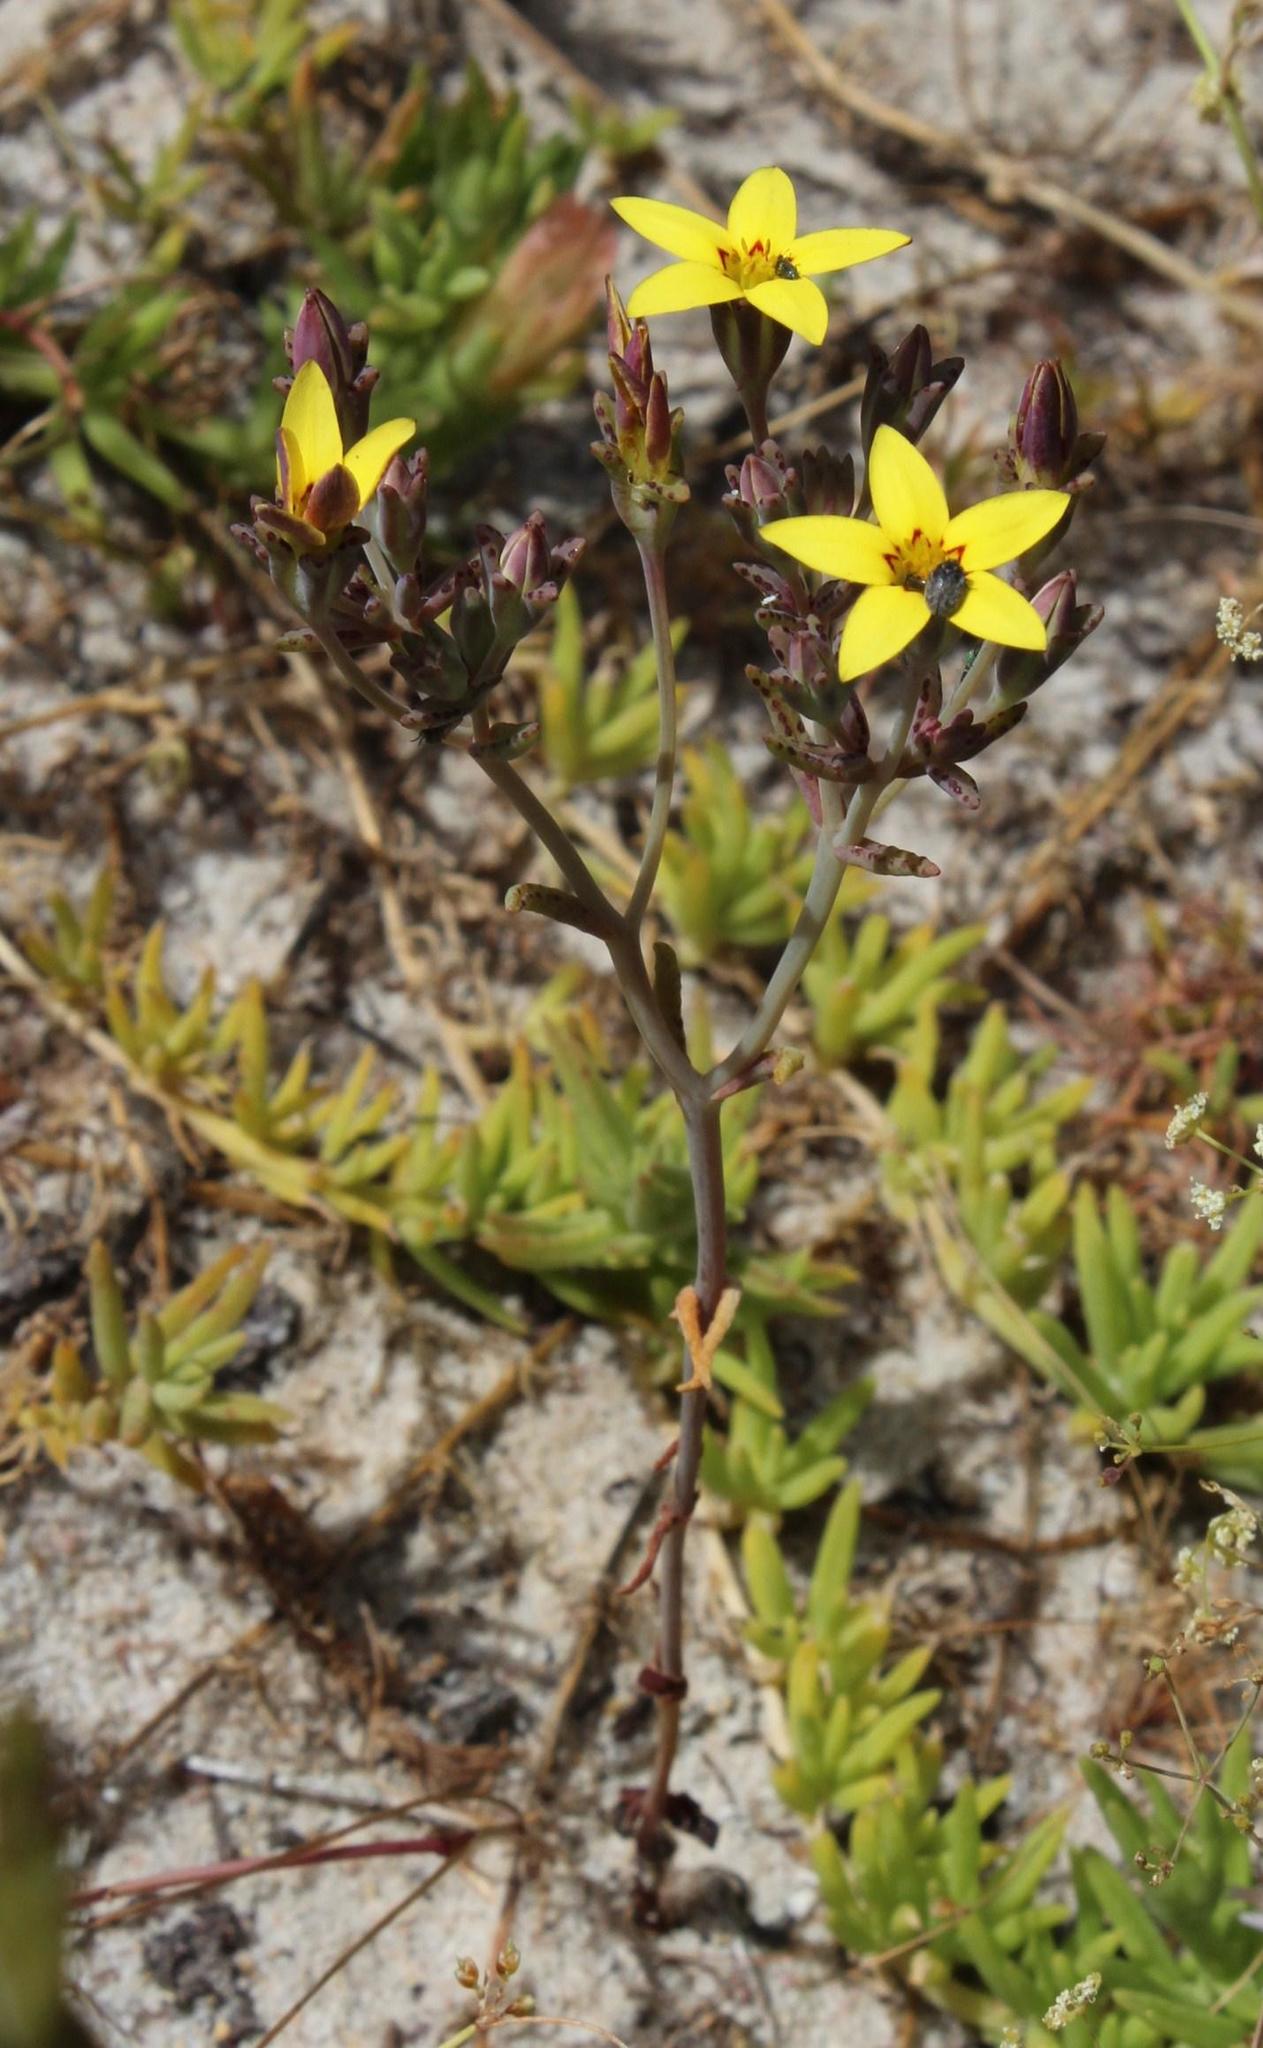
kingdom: Plantae
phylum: Tracheophyta
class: Magnoliopsida
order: Saxifragales
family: Crassulaceae
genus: Crassula
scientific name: Crassula dichotoma
